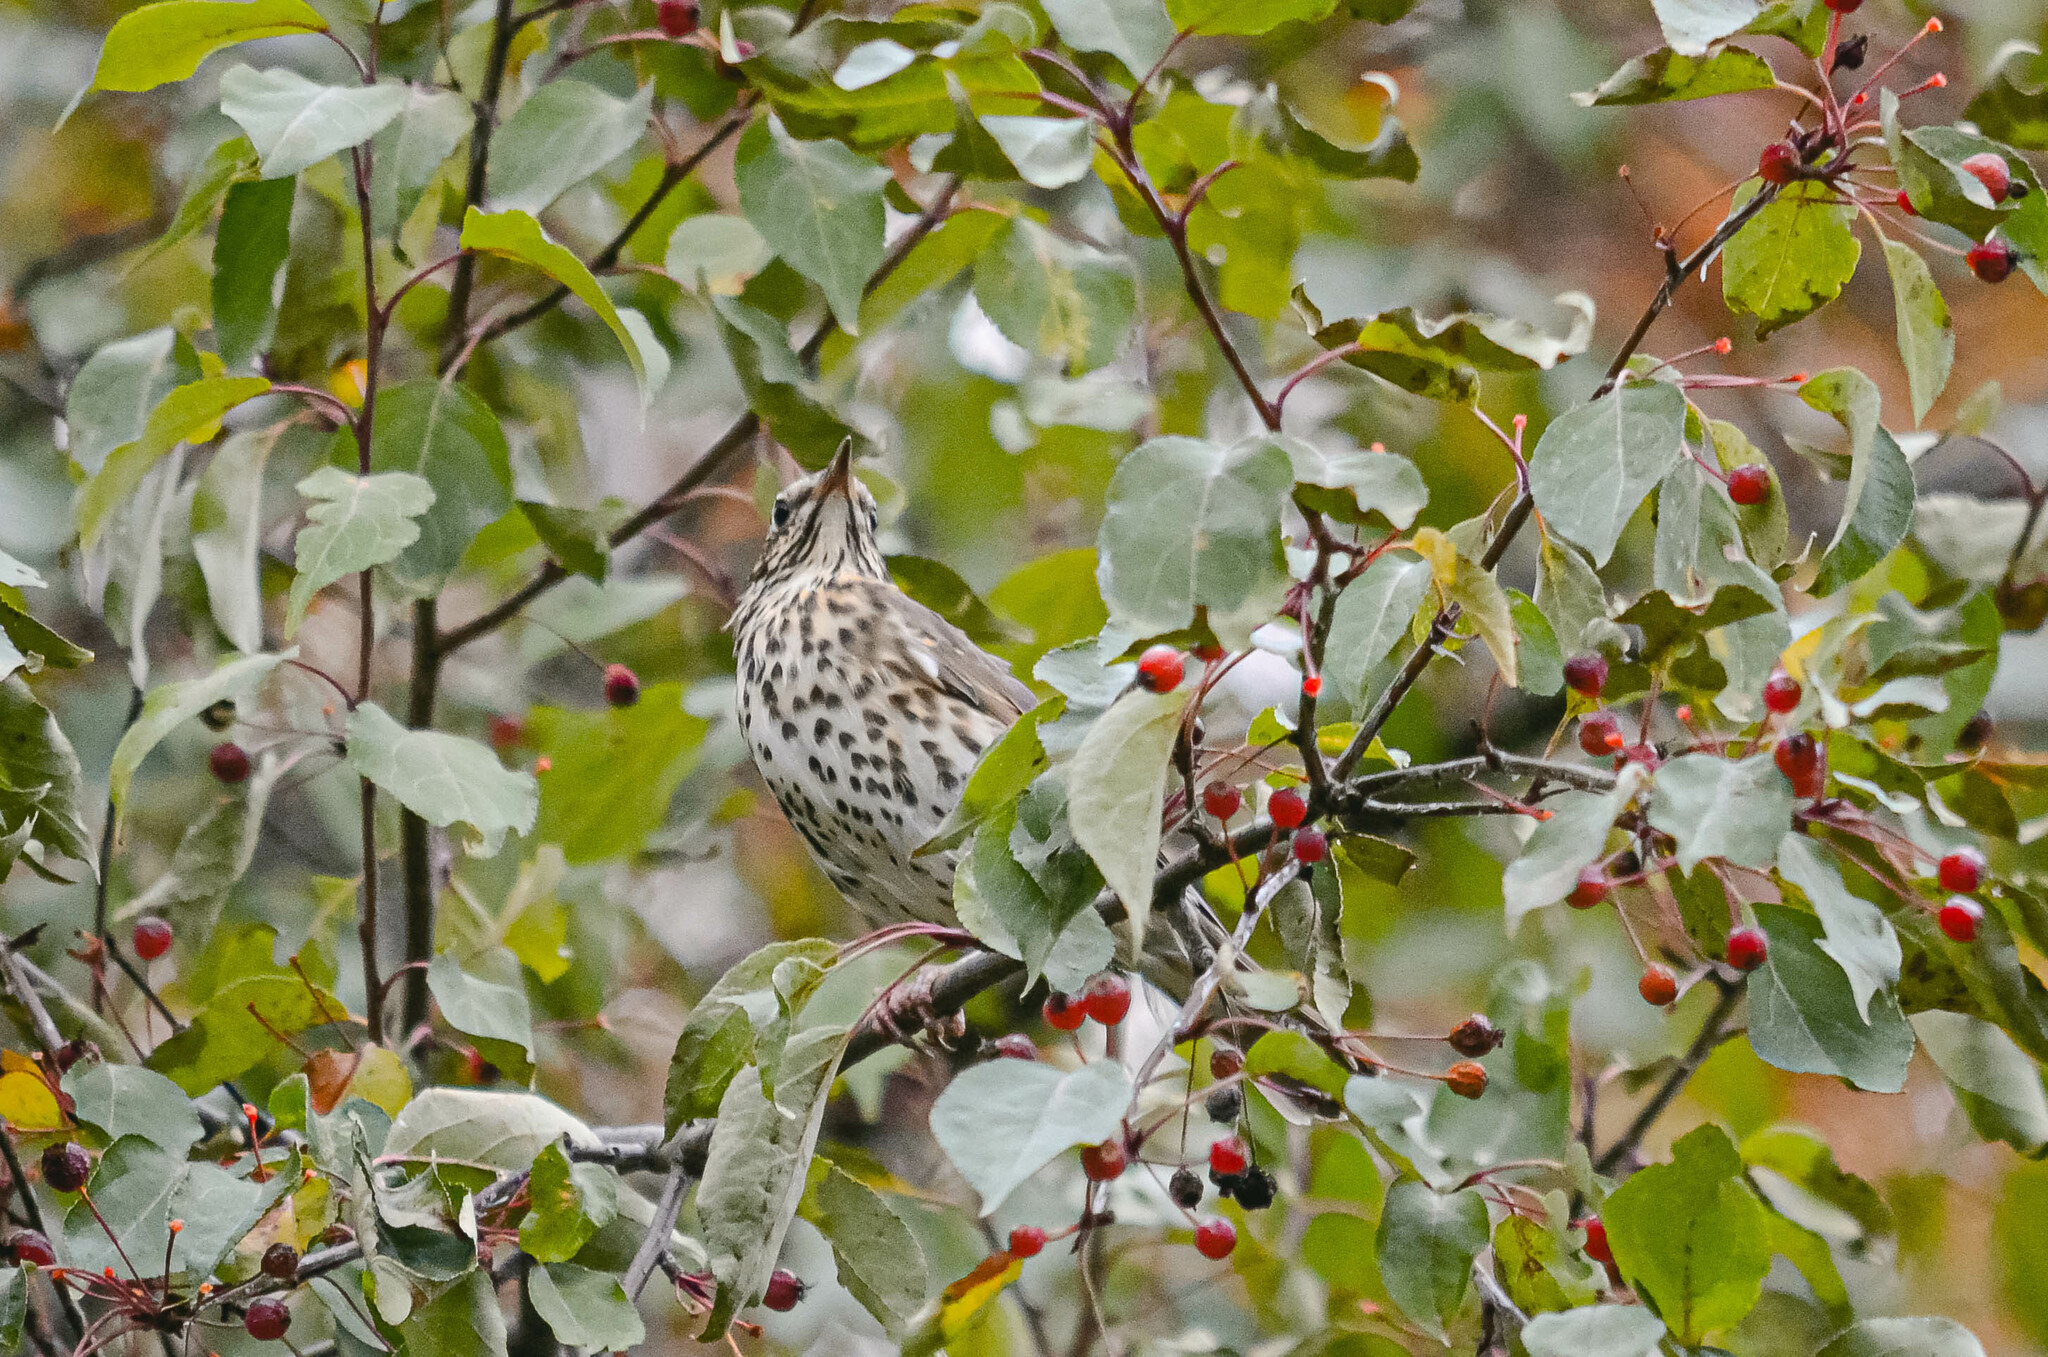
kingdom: Animalia
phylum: Chordata
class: Aves
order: Passeriformes
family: Turdidae
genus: Turdus
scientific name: Turdus philomelos
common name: Song thrush
